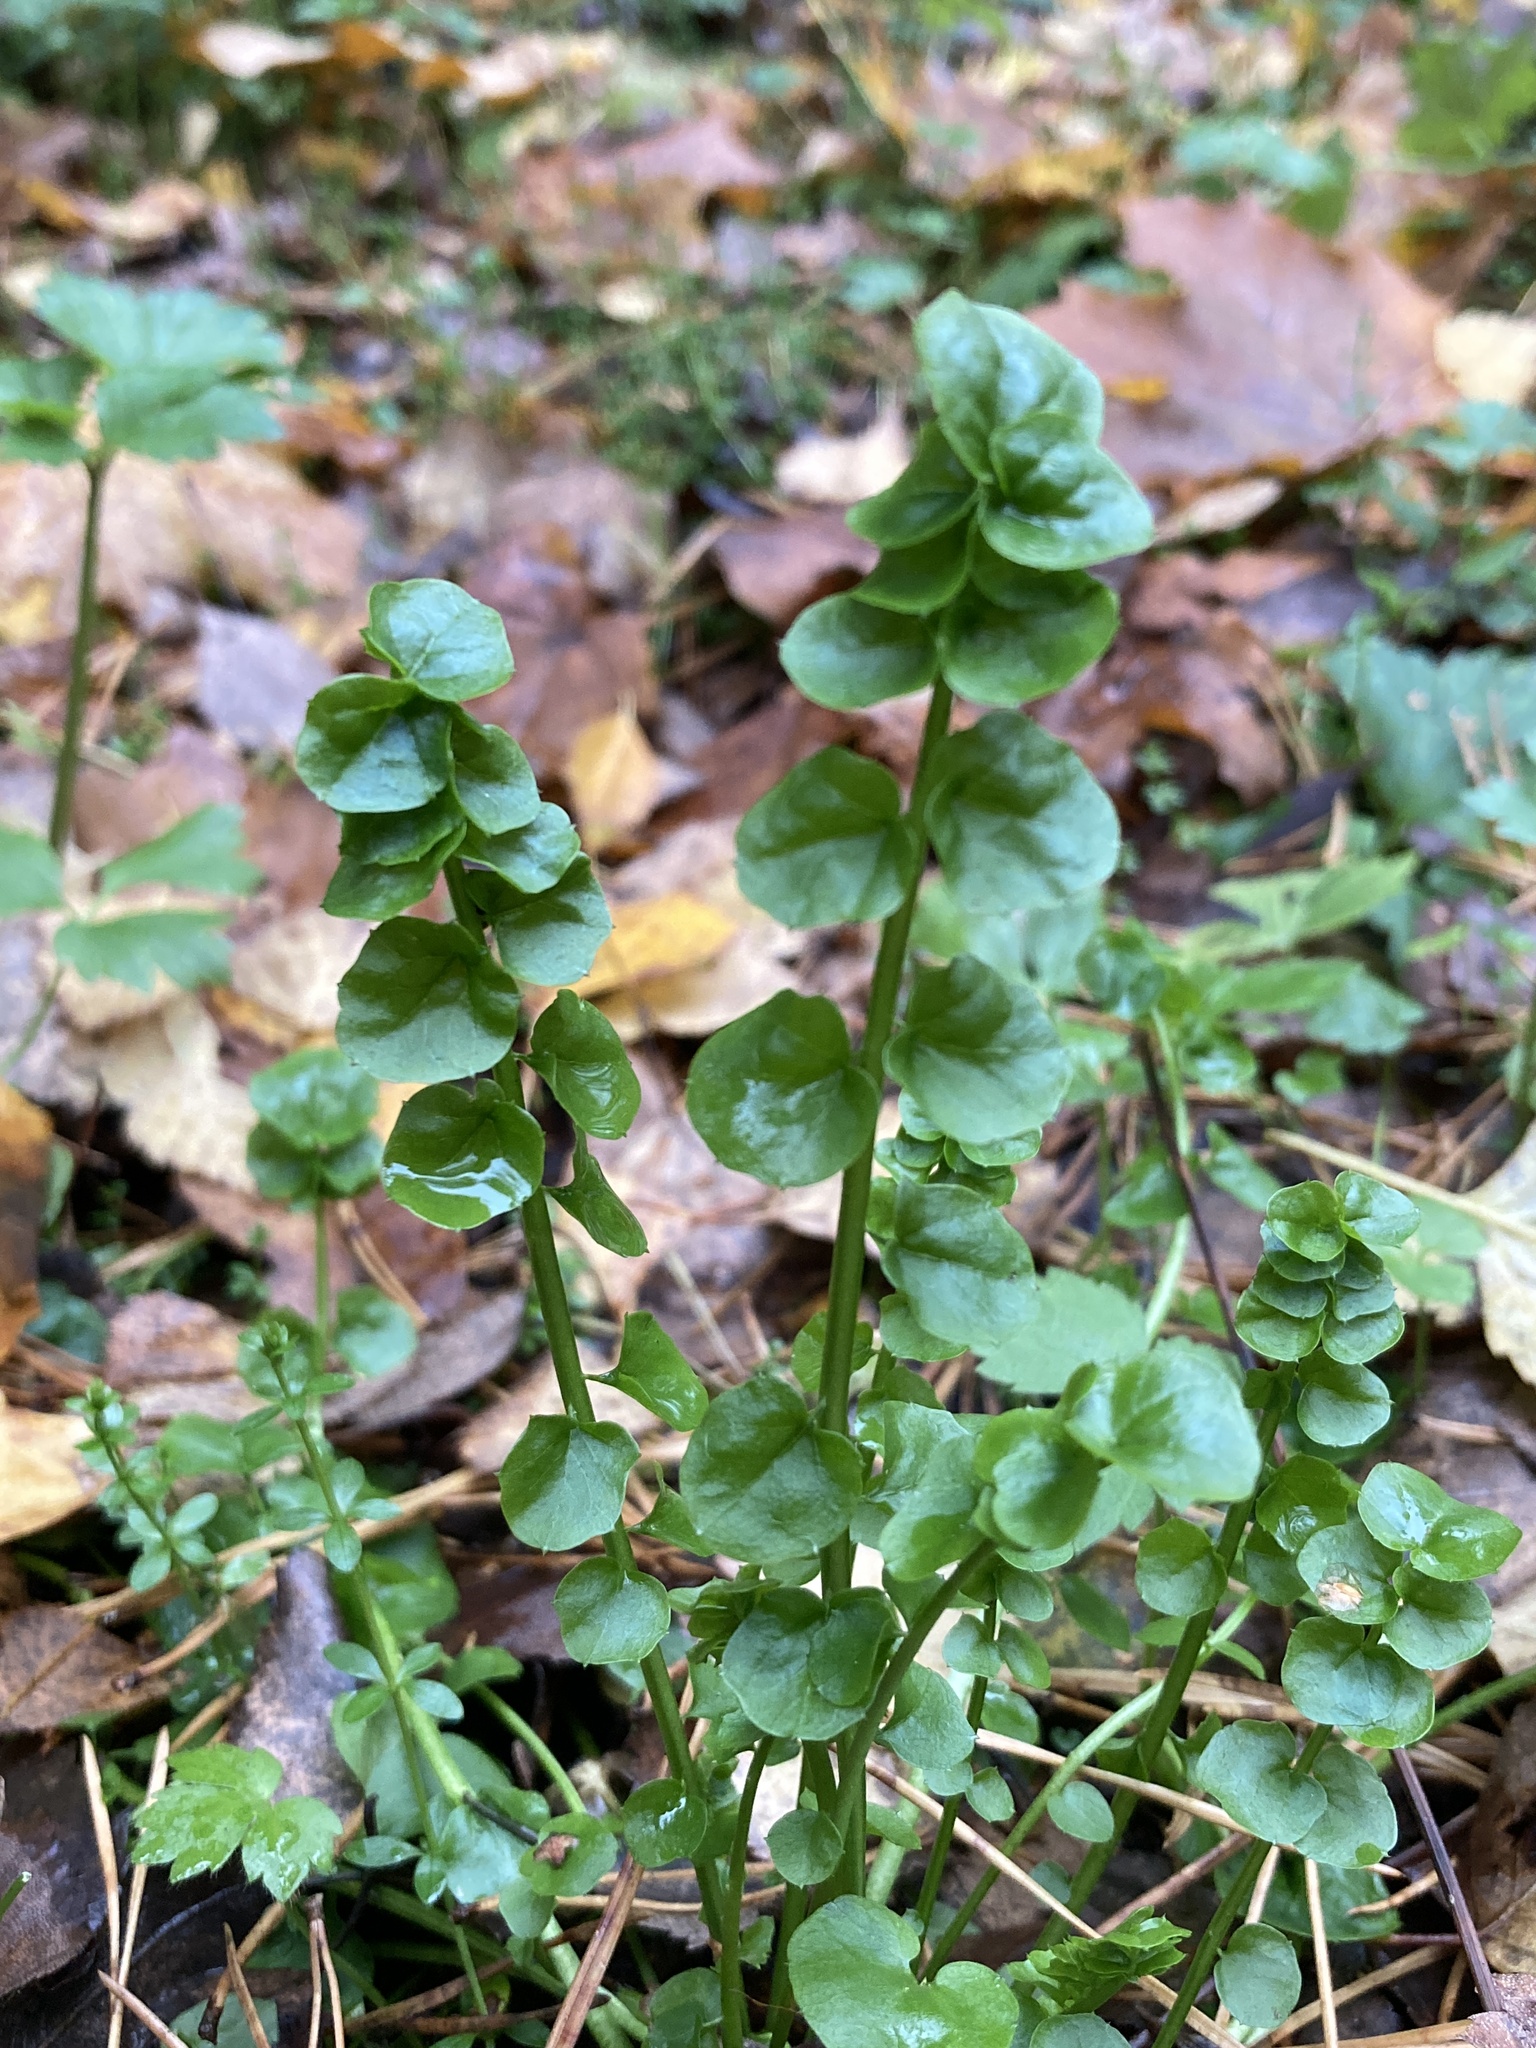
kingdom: Plantae
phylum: Tracheophyta
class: Magnoliopsida
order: Brassicales
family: Brassicaceae
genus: Cardamine
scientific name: Cardamine dentata
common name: Toothed bittercress
